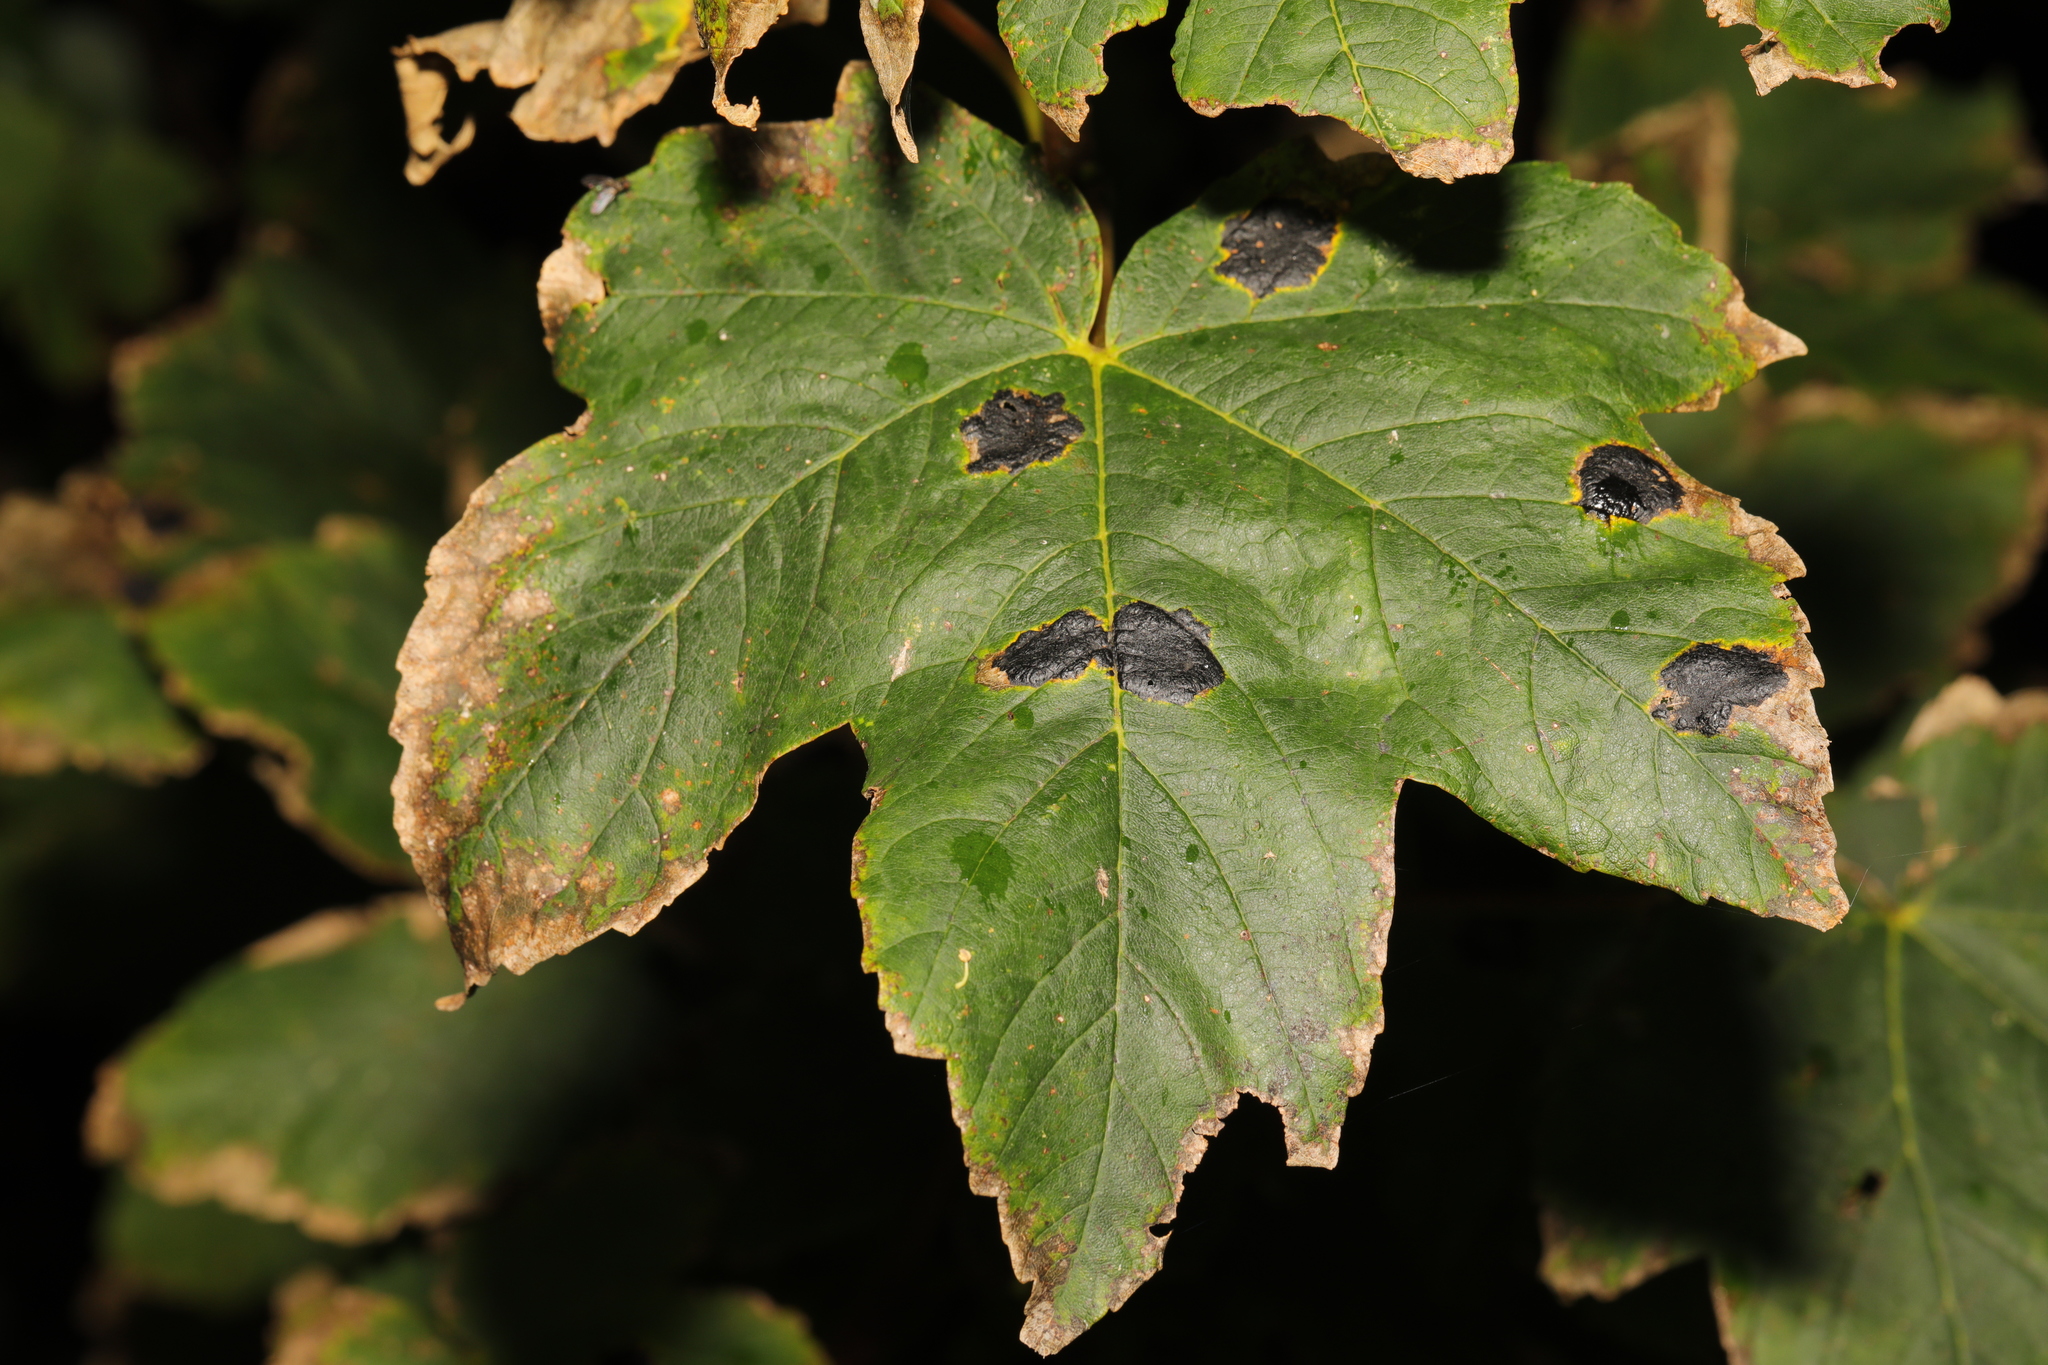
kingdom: Fungi
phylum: Ascomycota
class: Leotiomycetes
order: Rhytismatales
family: Rhytismataceae
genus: Rhytisma
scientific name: Rhytisma acerinum
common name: European tar spot
